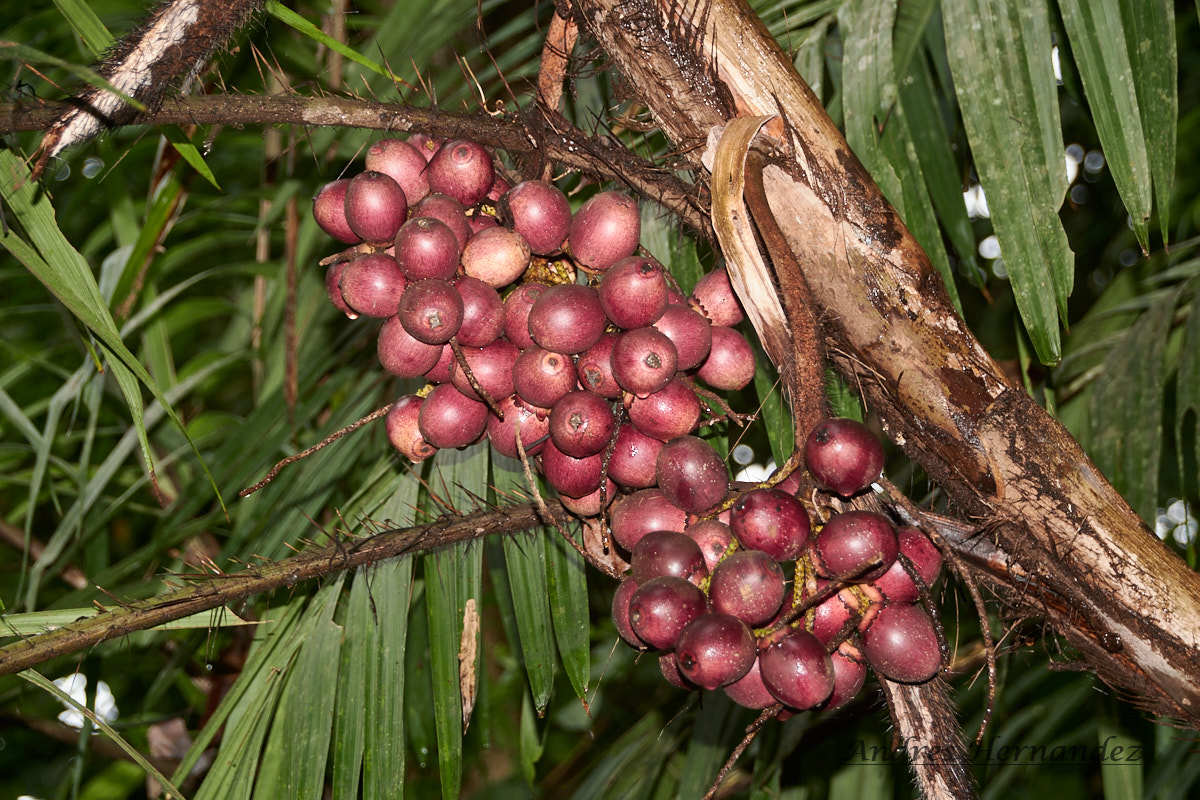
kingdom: Plantae
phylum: Tracheophyta
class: Liliopsida
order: Arecales
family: Arecaceae
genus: Bactris
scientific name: Bactris major
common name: Beach palm
